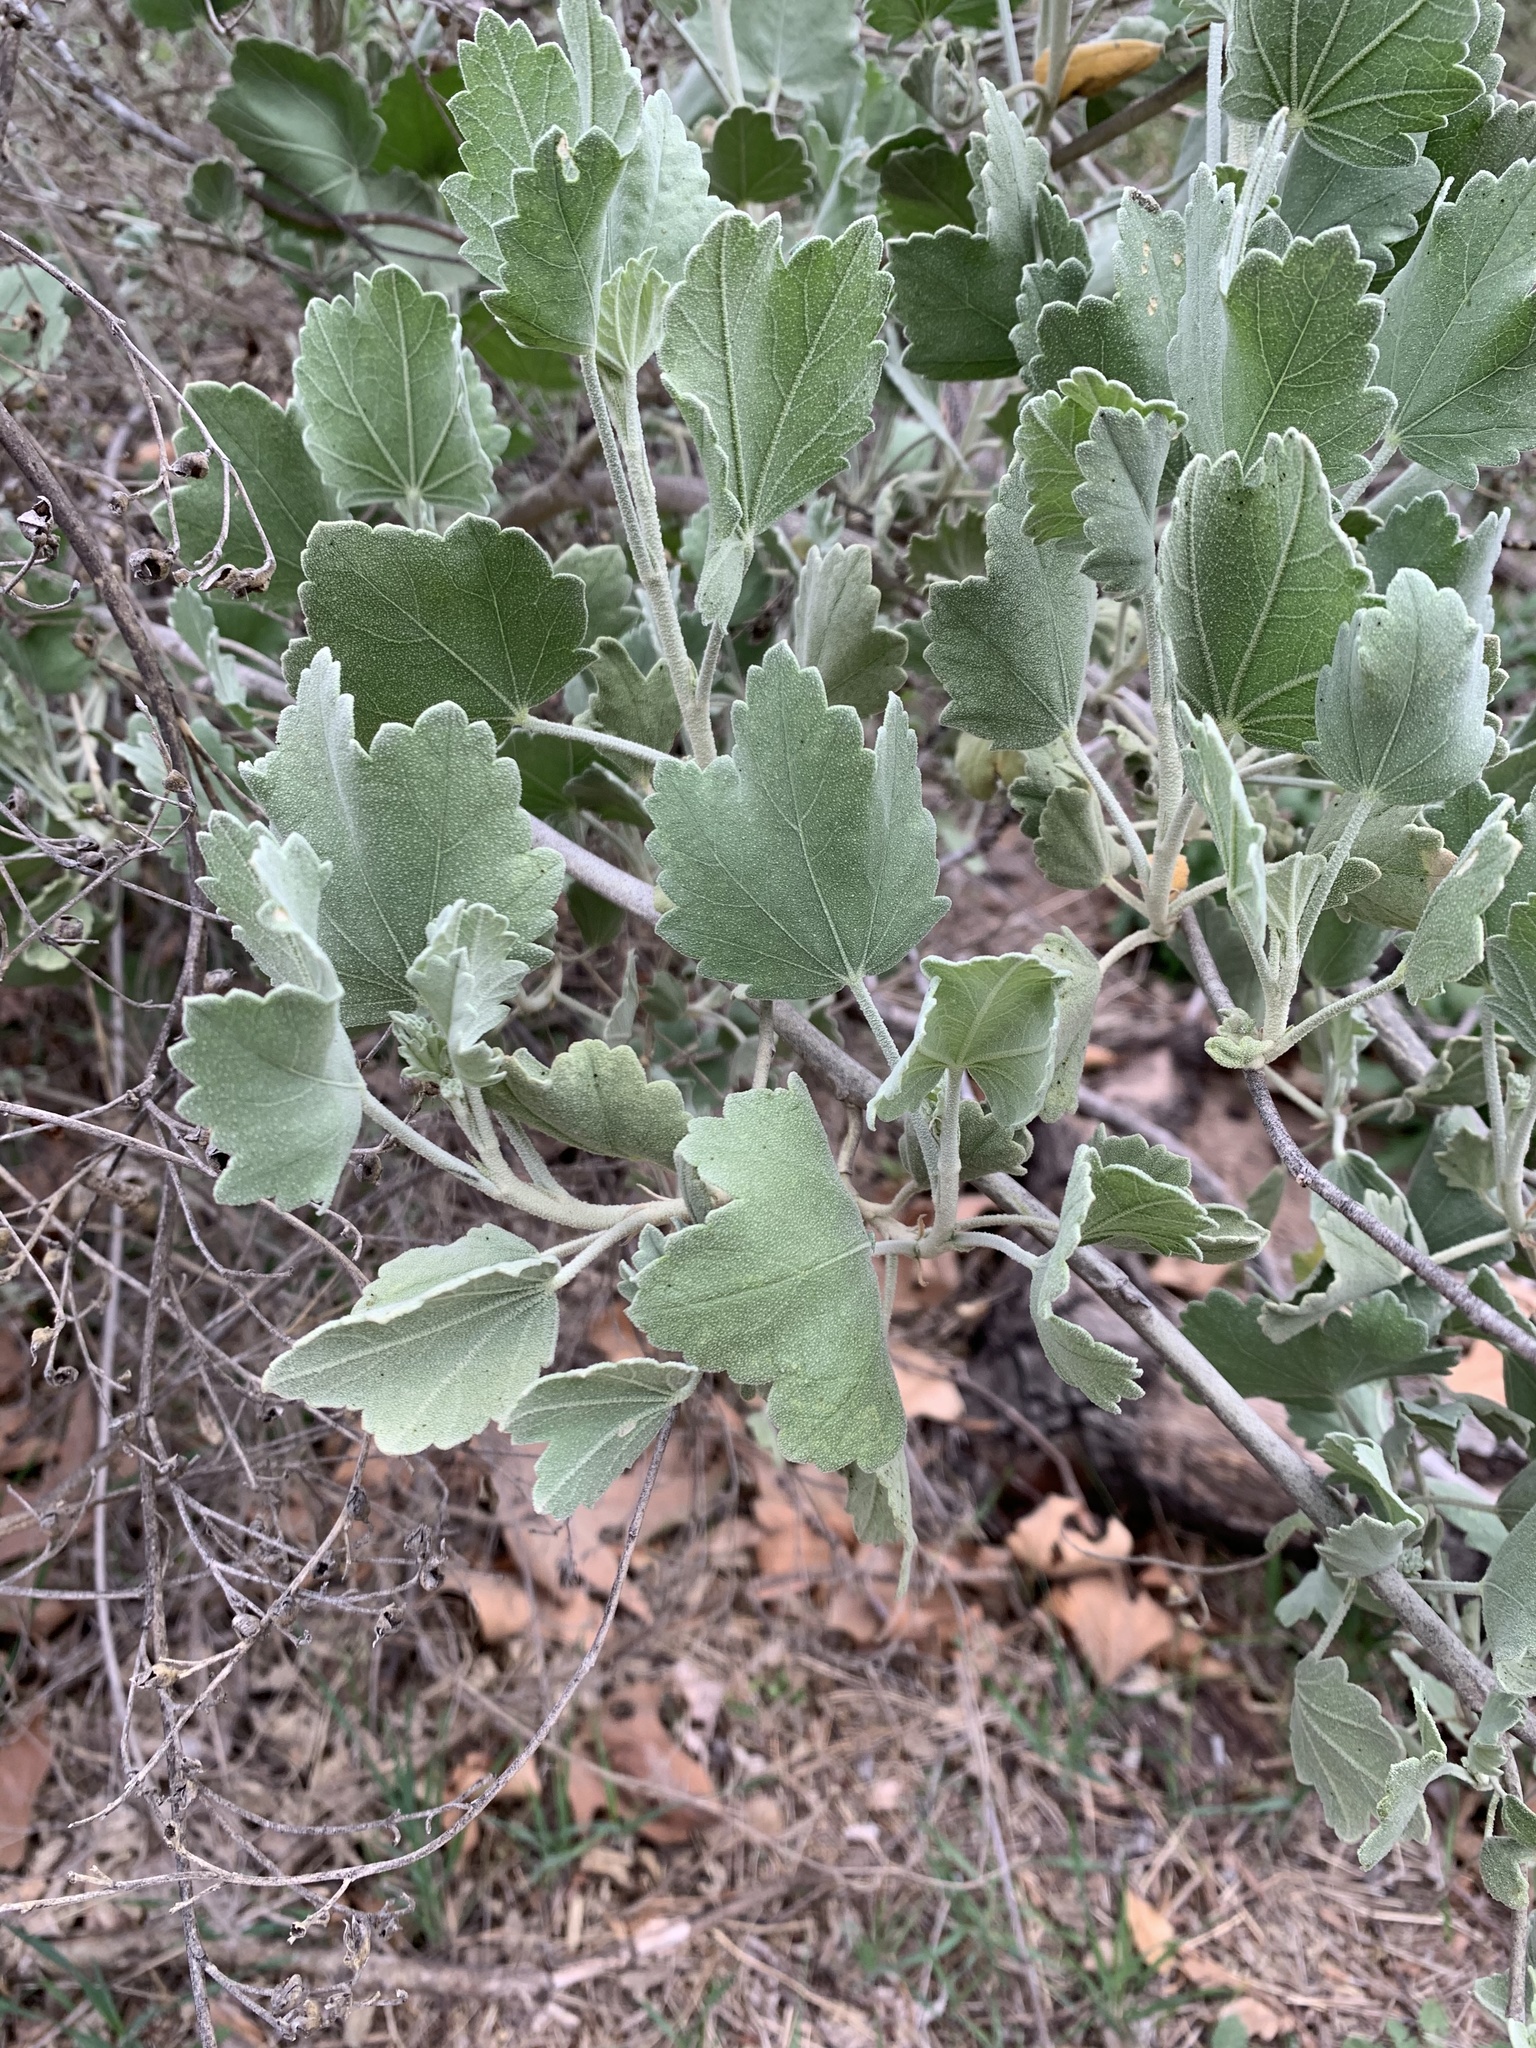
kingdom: Plantae
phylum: Tracheophyta
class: Magnoliopsida
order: Malvales
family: Malvaceae
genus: Malacothamnus
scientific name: Malacothamnus fasciculatus
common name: Sant cruz island bush-mallow
